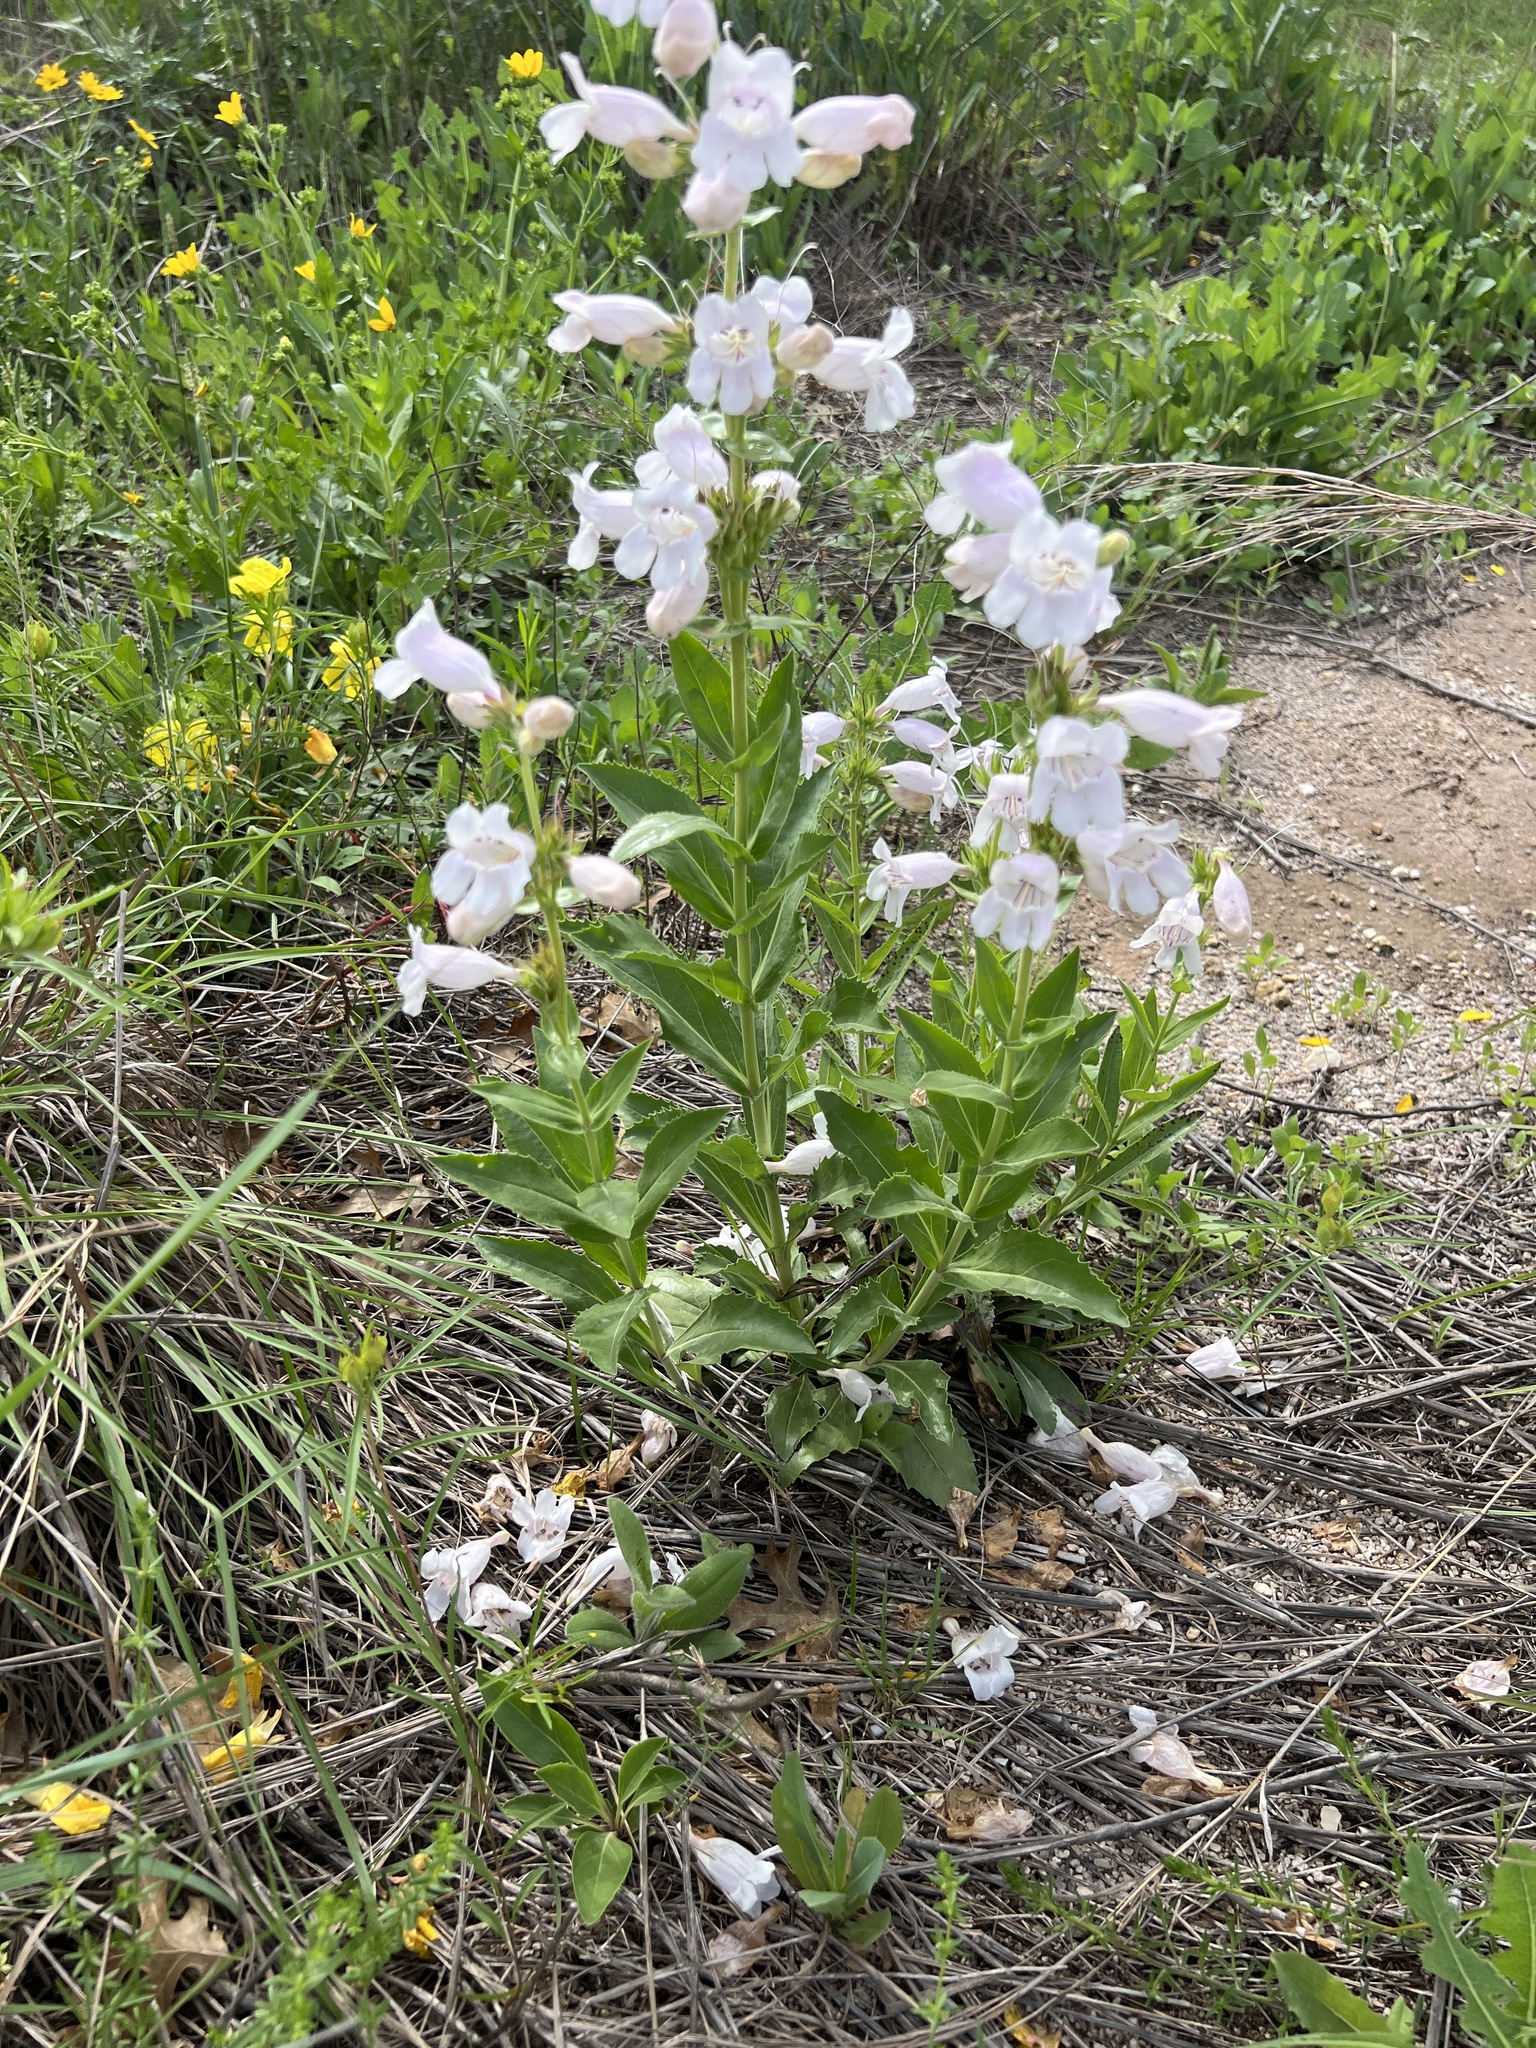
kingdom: Plantae
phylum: Tracheophyta
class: Magnoliopsida
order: Lamiales
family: Plantaginaceae
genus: Penstemon
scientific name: Penstemon cobaea
